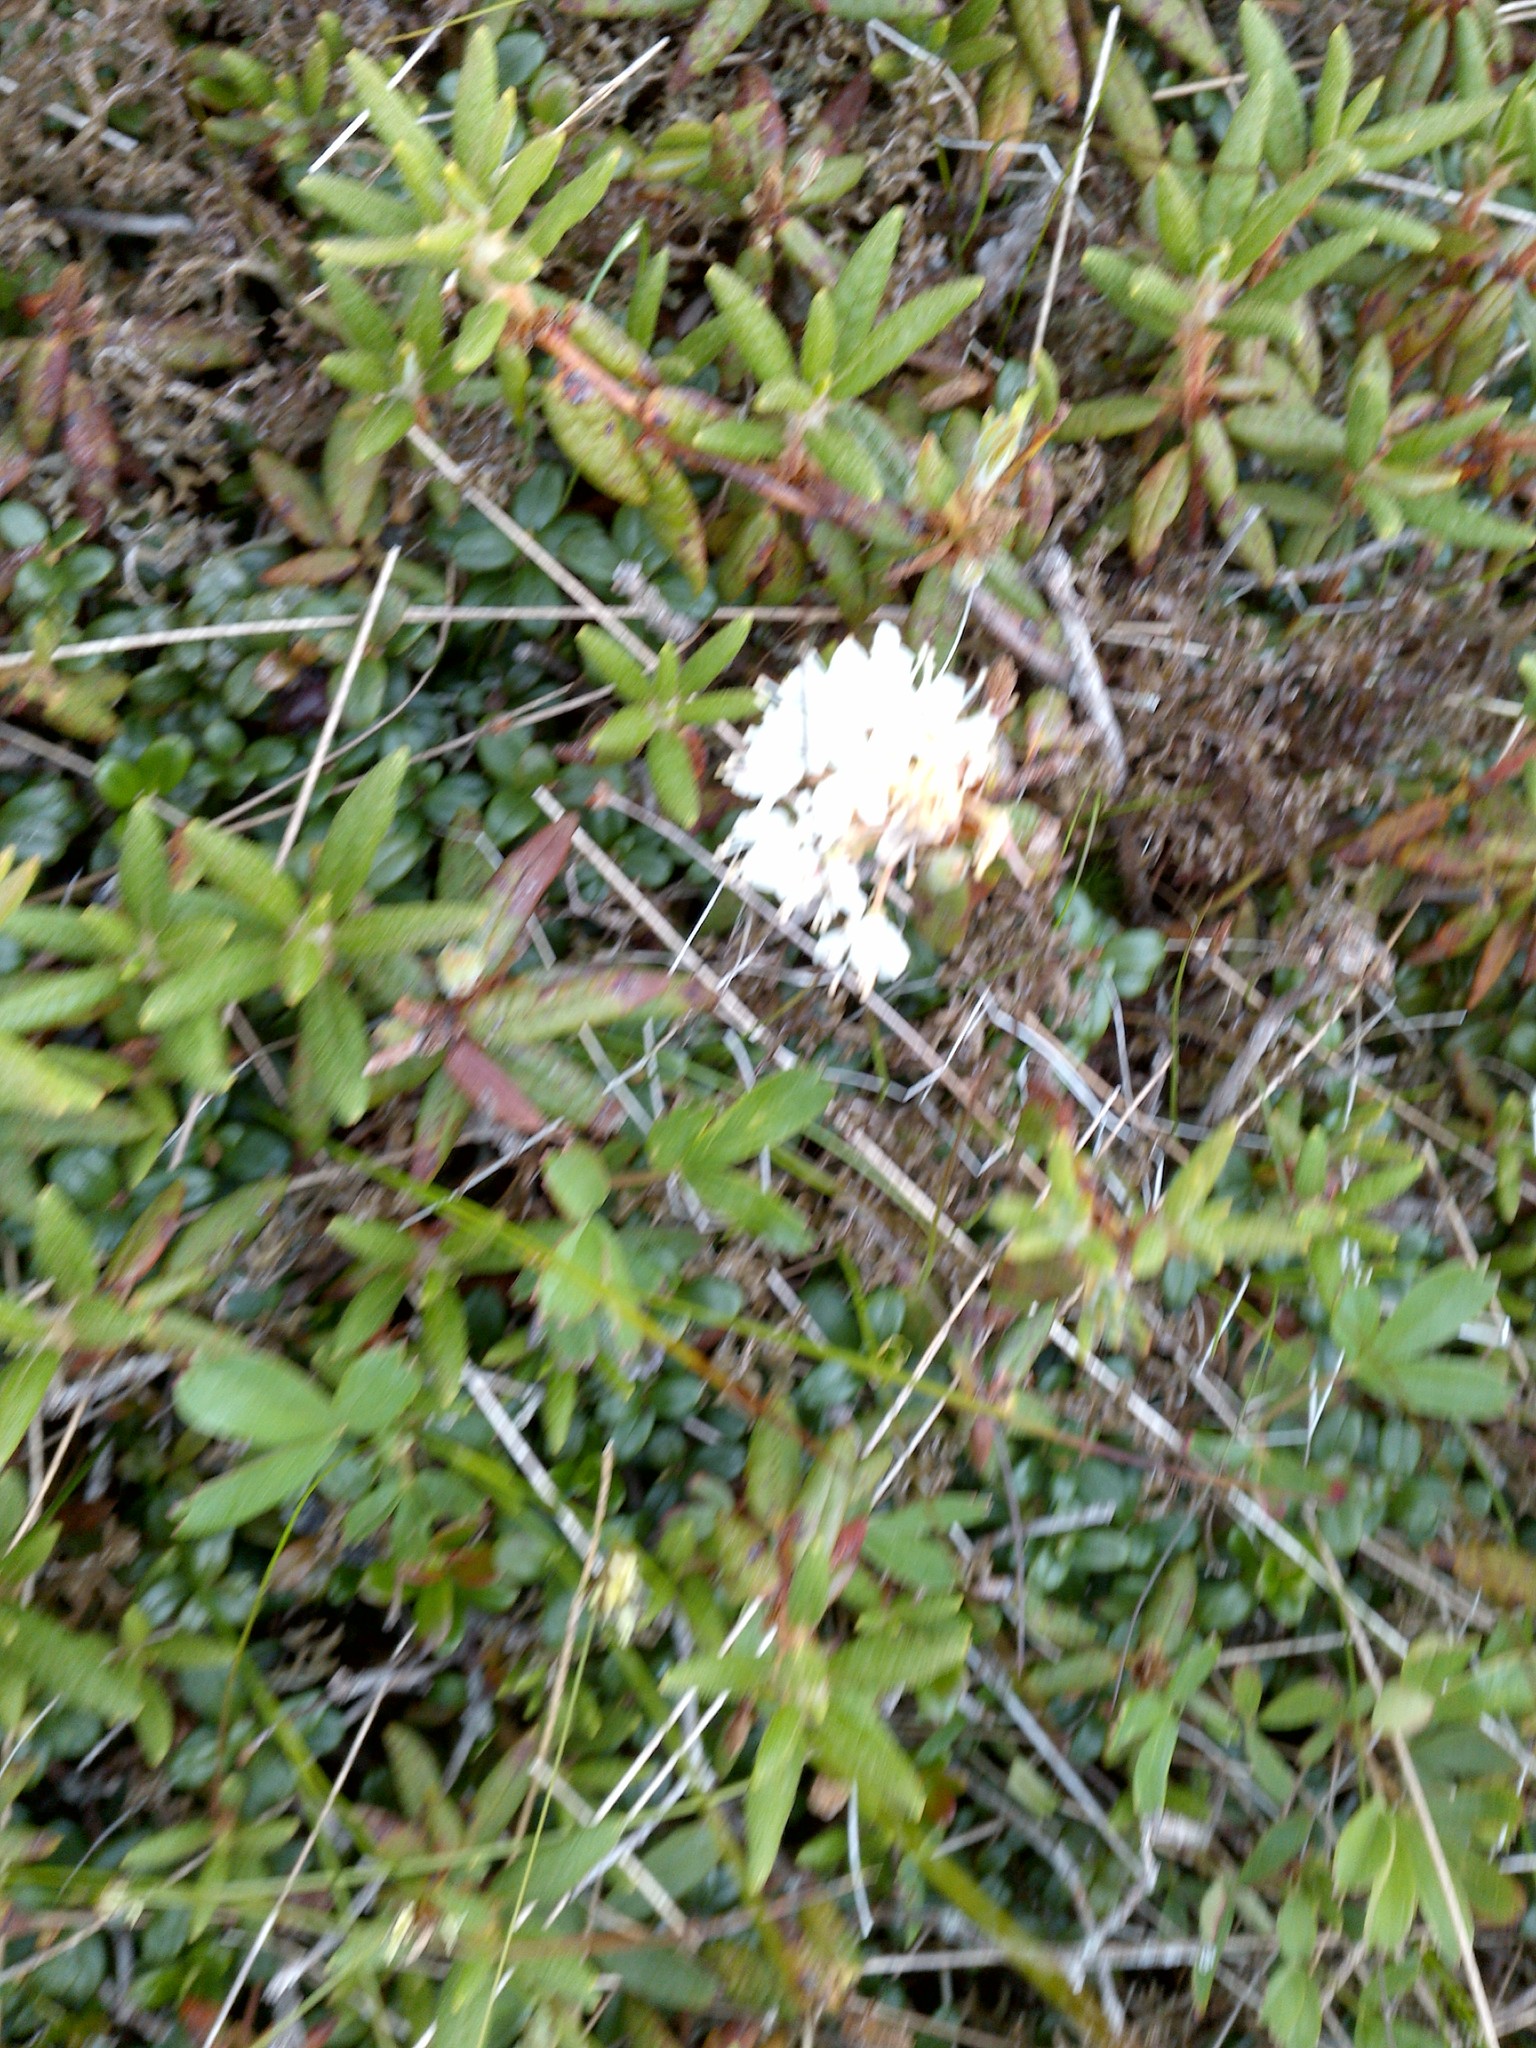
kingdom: Plantae
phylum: Tracheophyta
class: Magnoliopsida
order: Ericales
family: Ericaceae
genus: Rhododendron
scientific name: Rhododendron groenlandicum
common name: Bog labrador tea
